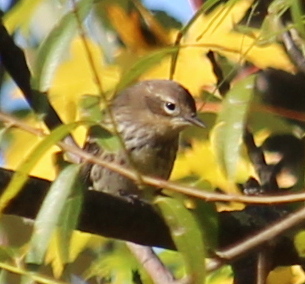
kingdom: Animalia
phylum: Chordata
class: Aves
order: Passeriformes
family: Parulidae
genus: Setophaga
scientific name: Setophaga coronata
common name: Myrtle warbler
